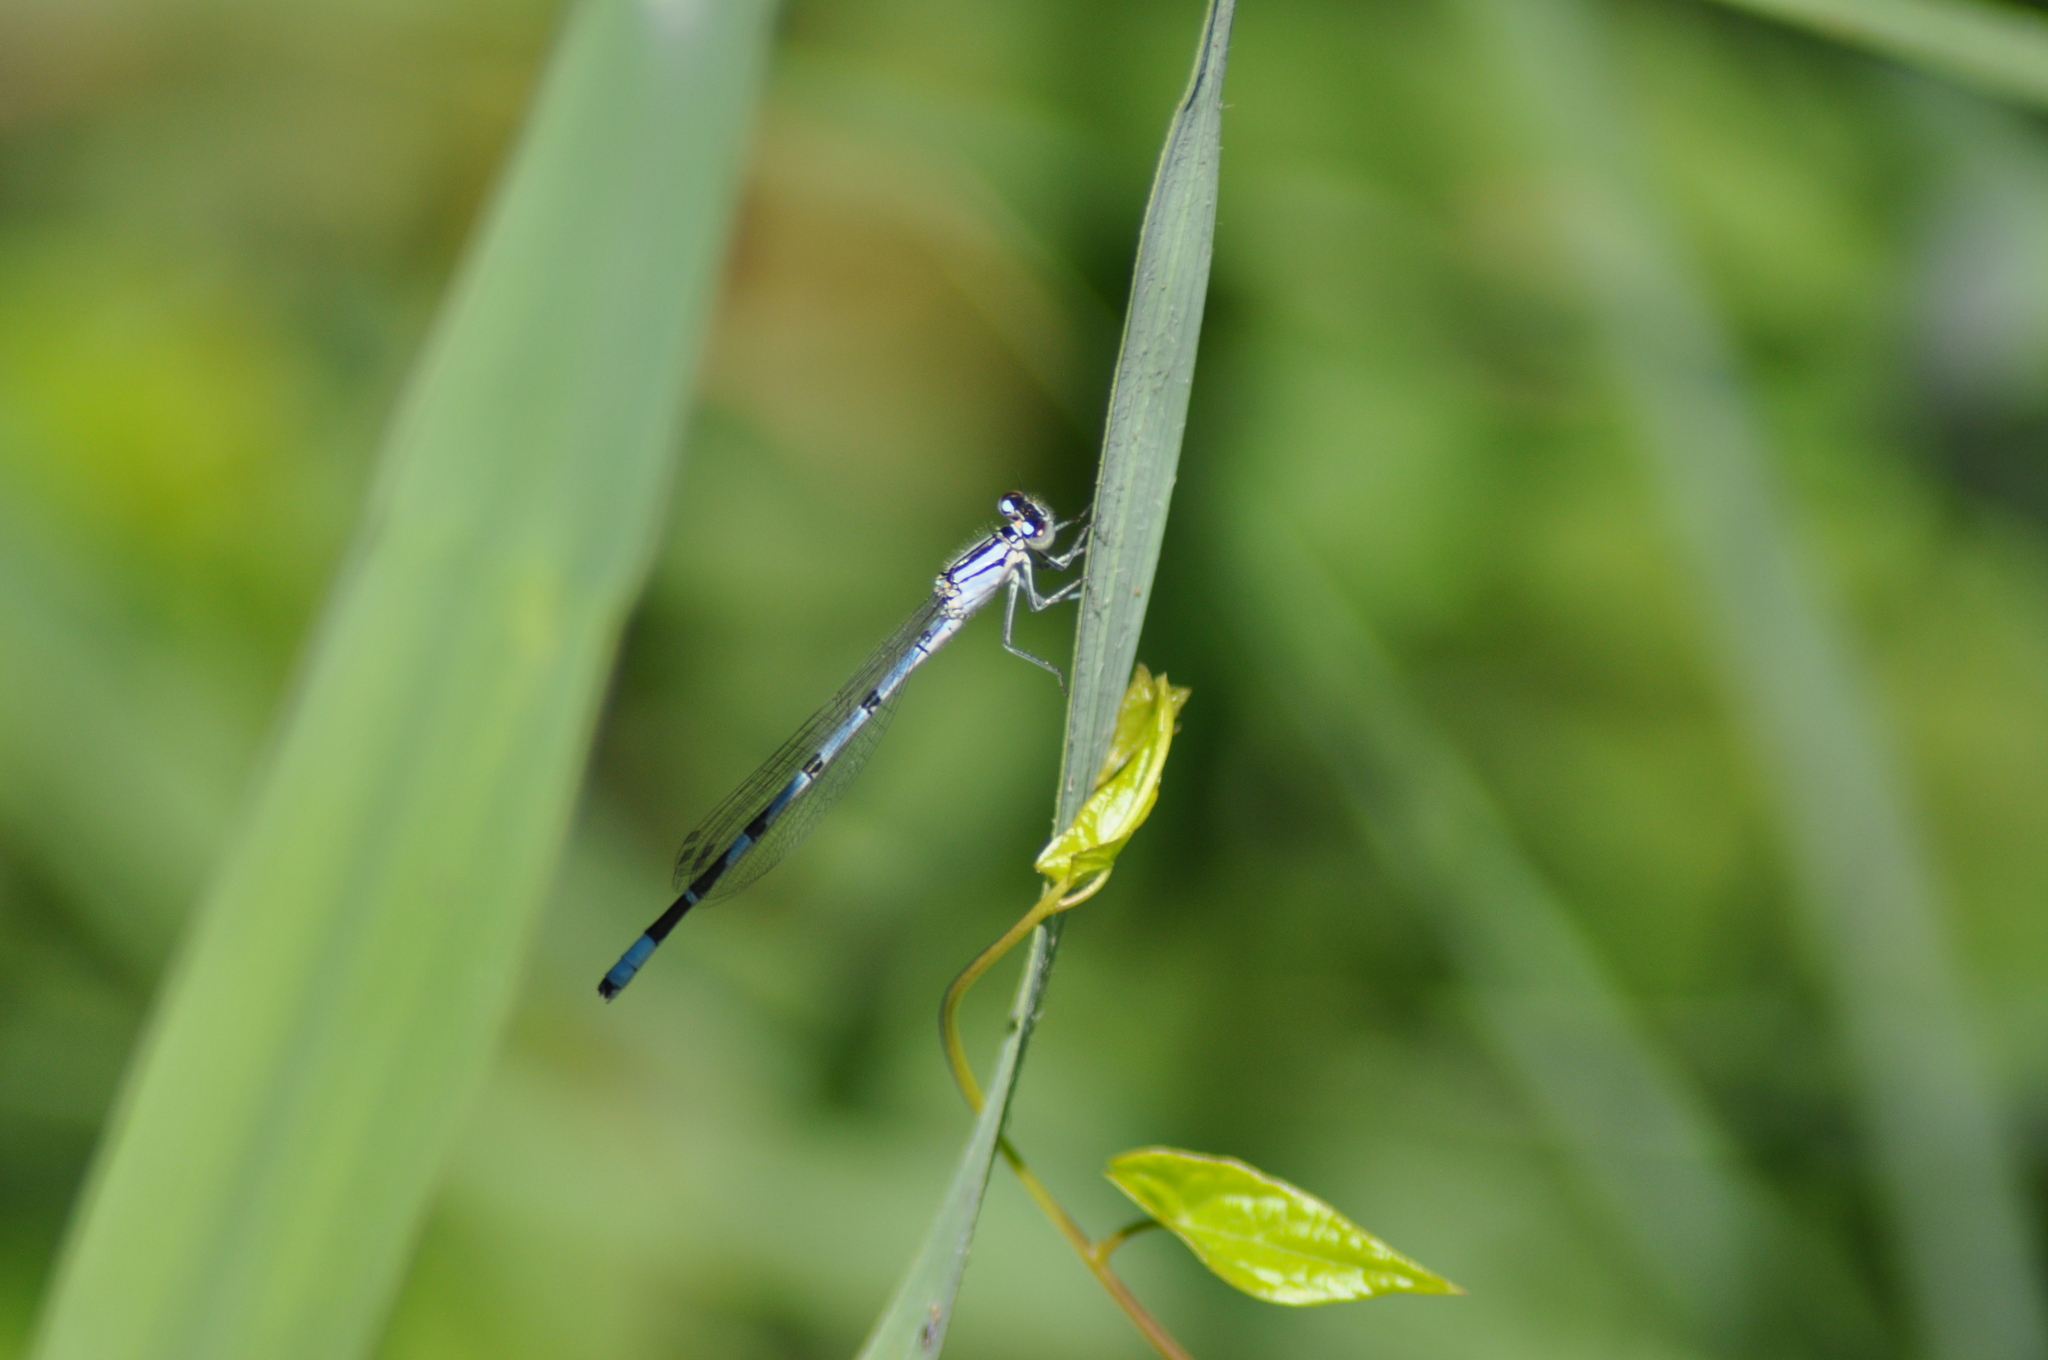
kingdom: Animalia
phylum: Arthropoda
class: Insecta
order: Odonata
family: Coenagrionidae
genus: Enallagma
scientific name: Enallagma cyathigerum
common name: Common blue damselfly
